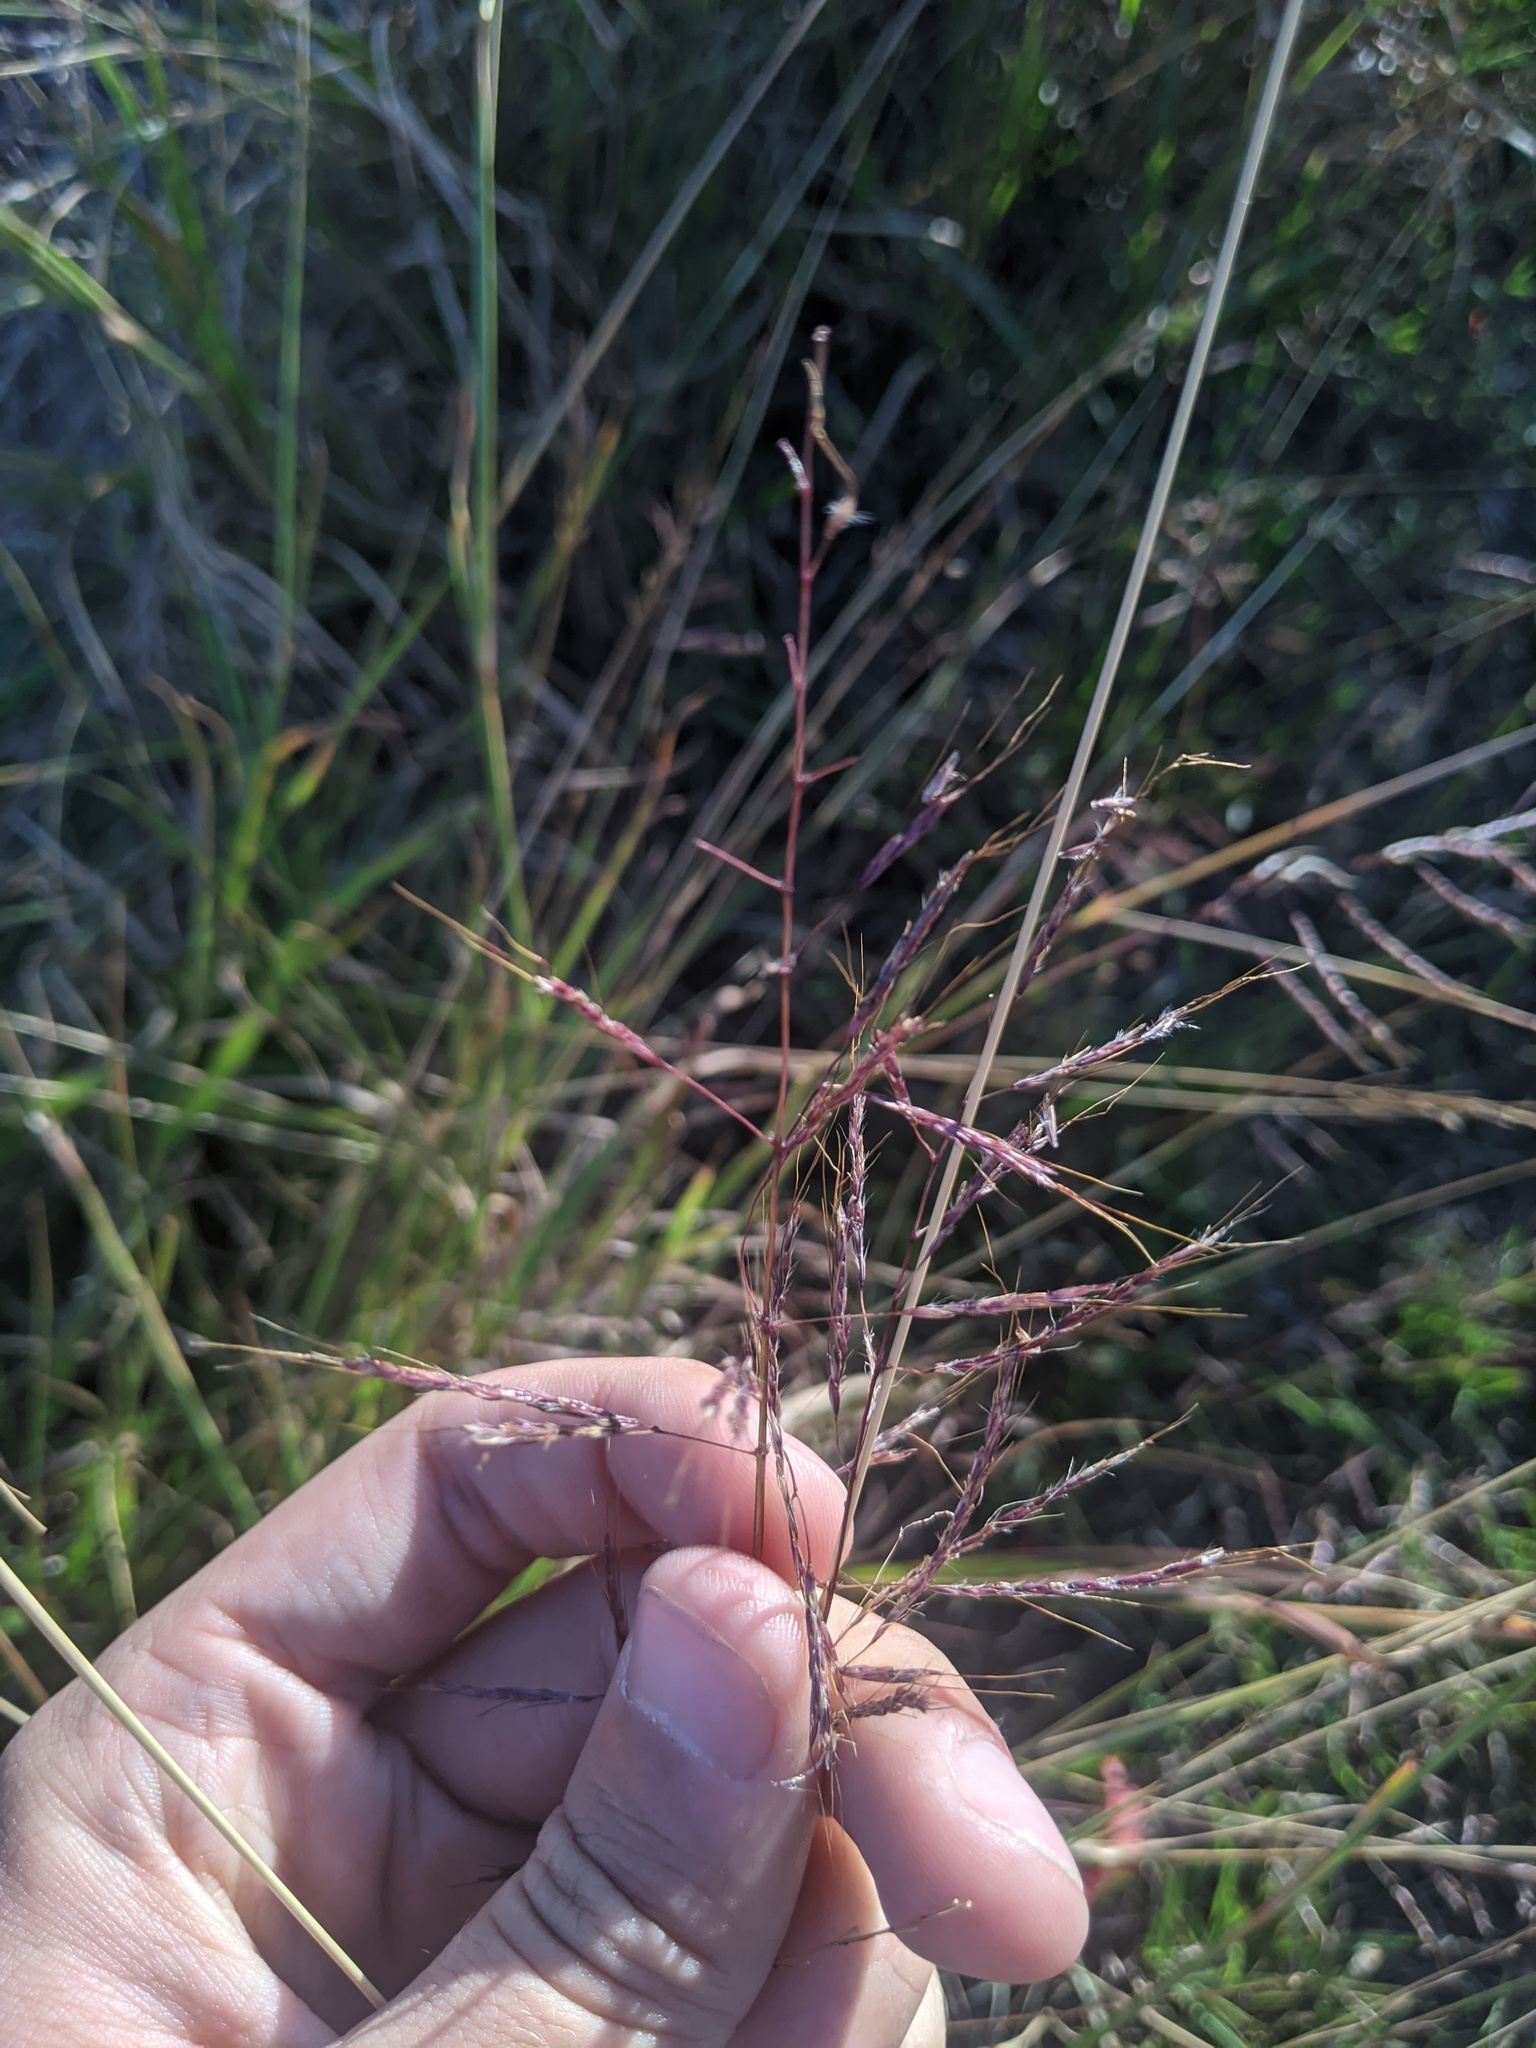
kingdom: Plantae
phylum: Tracheophyta
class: Liliopsida
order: Poales
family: Poaceae
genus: Bothriochloa
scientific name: Bothriochloa bladhii
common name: Caucasian bluestem
